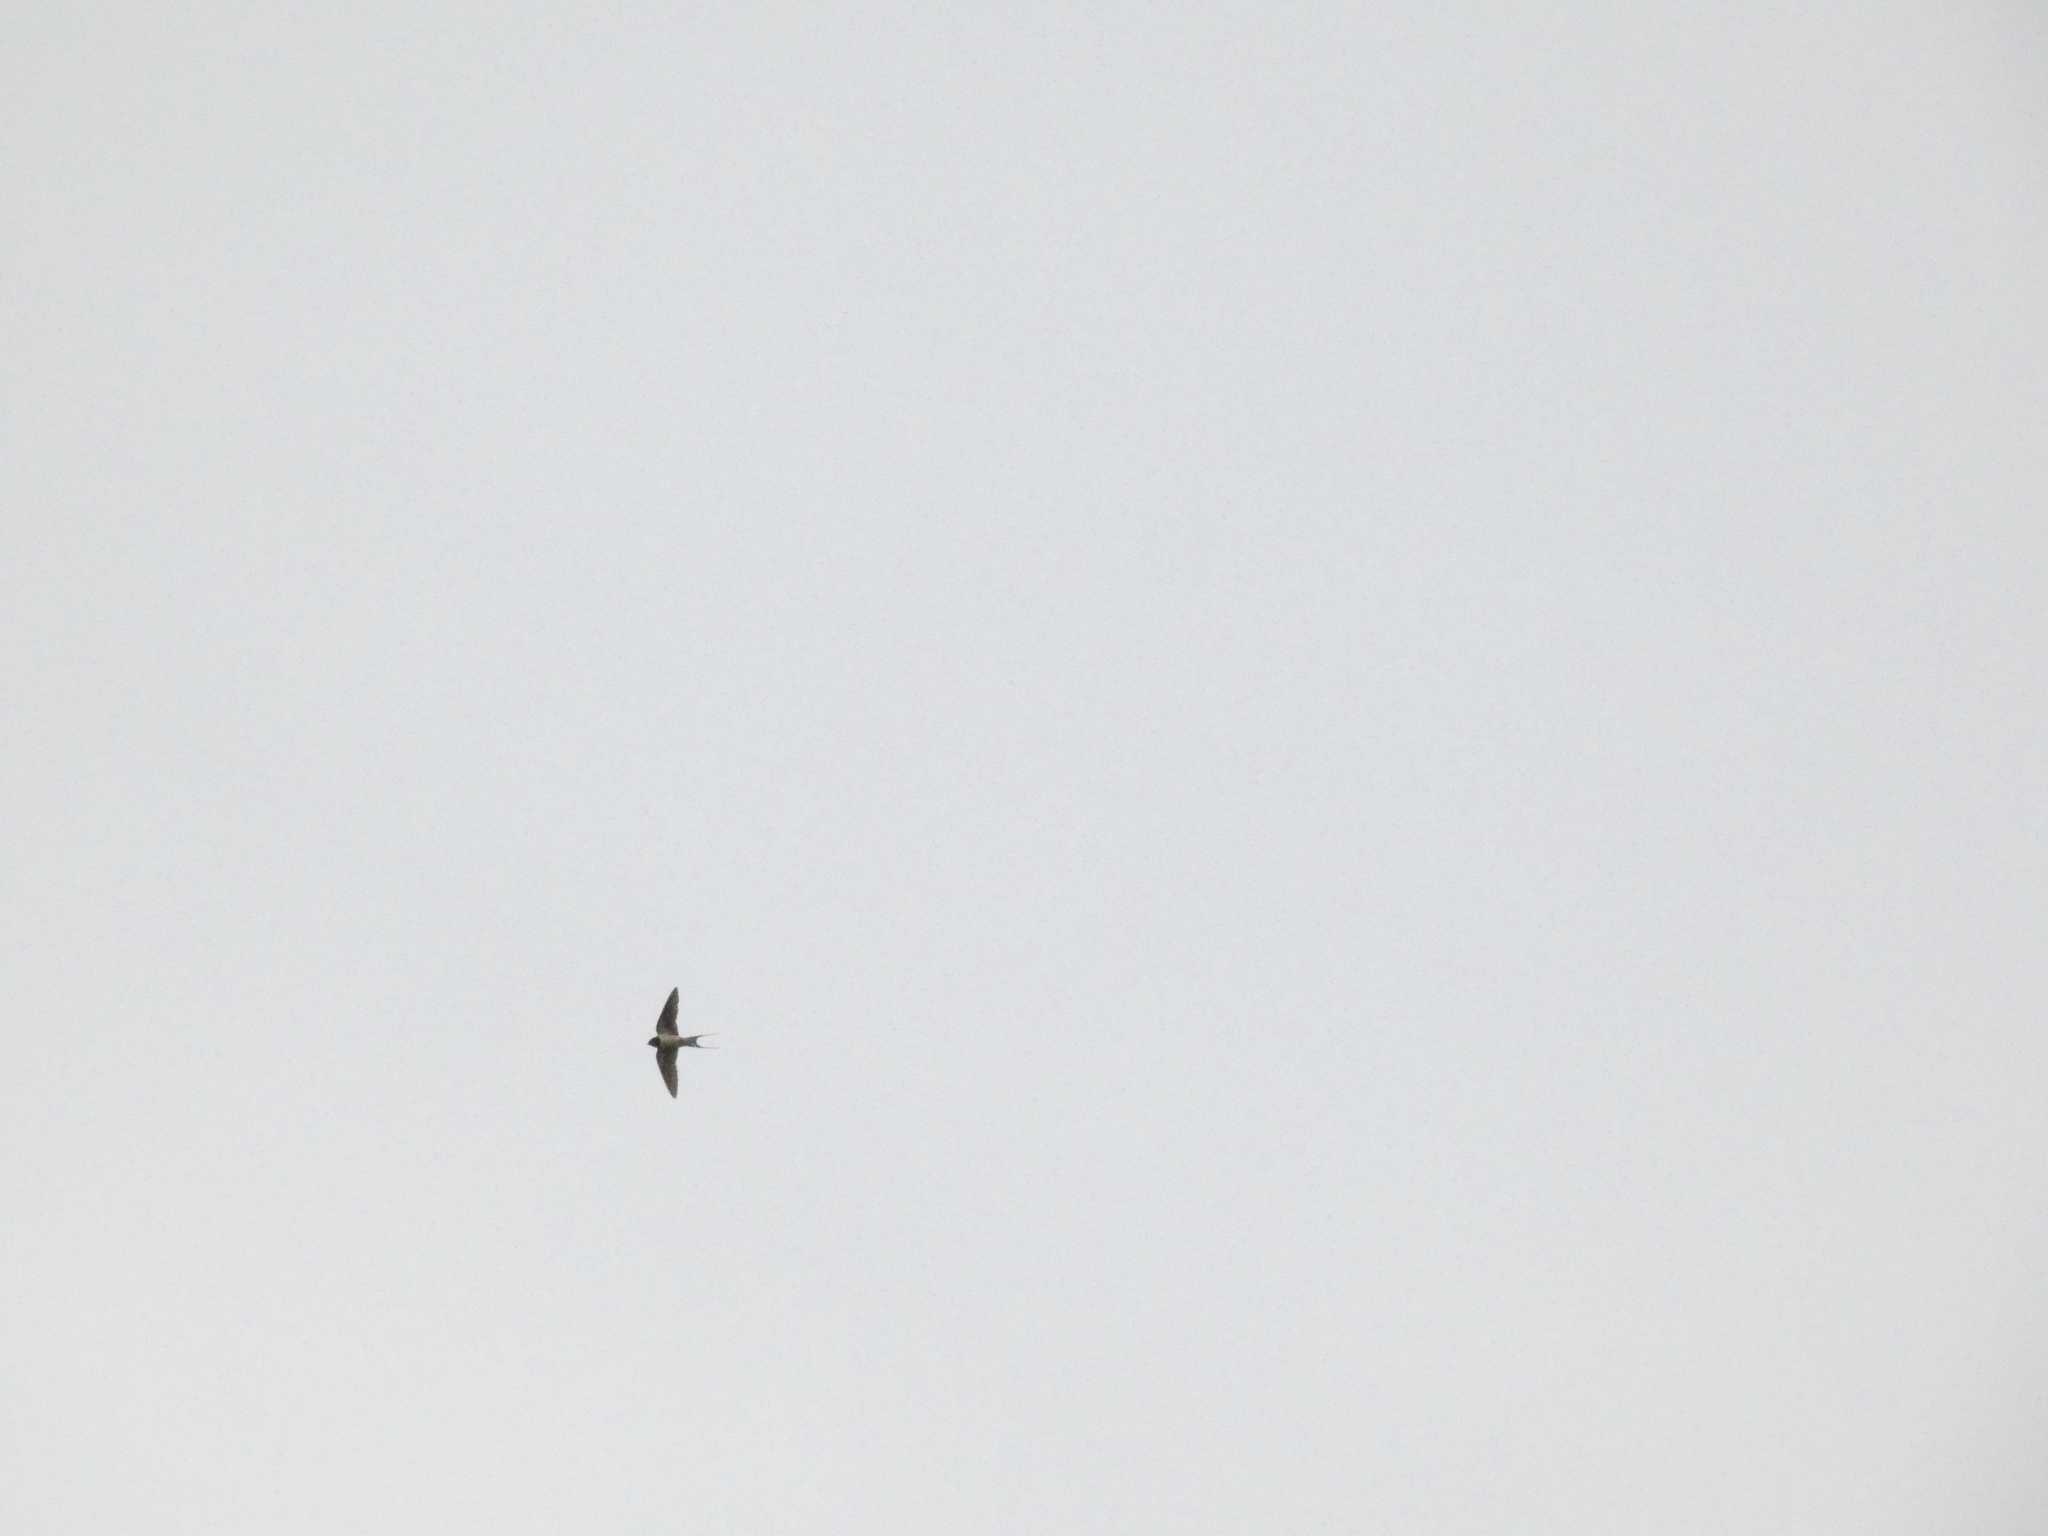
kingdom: Animalia
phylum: Chordata
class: Aves
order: Passeriformes
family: Hirundinidae
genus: Hirundo
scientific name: Hirundo rustica
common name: Barn swallow
